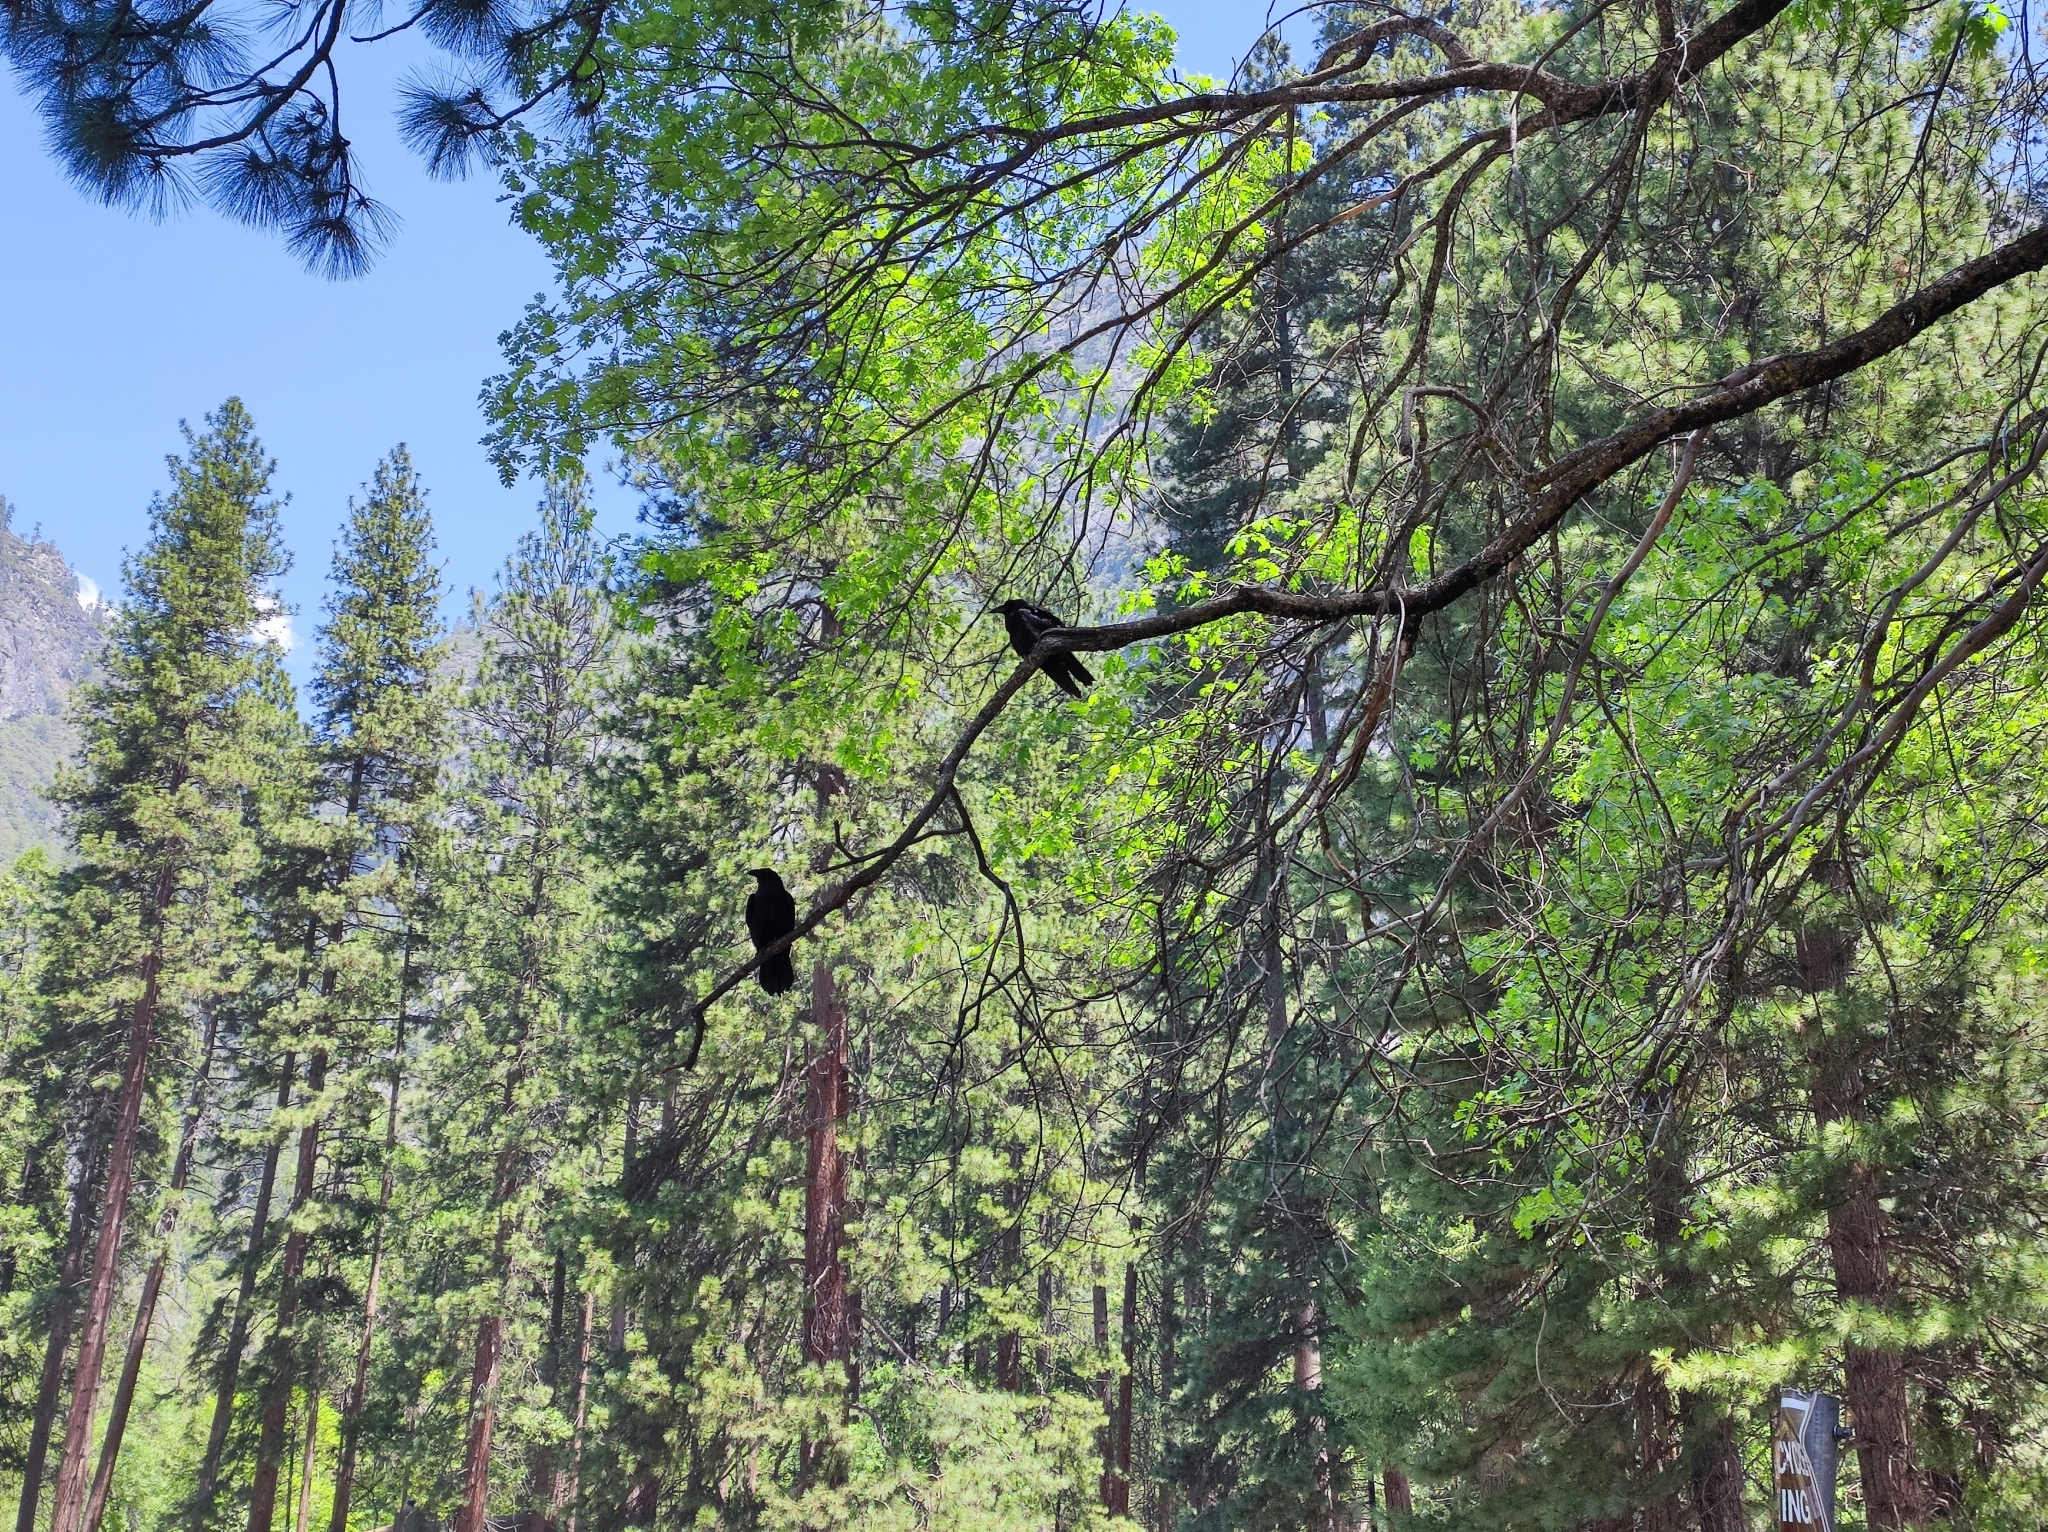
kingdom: Animalia
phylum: Chordata
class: Aves
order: Passeriformes
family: Corvidae
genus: Corvus
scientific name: Corvus corax
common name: Common raven
